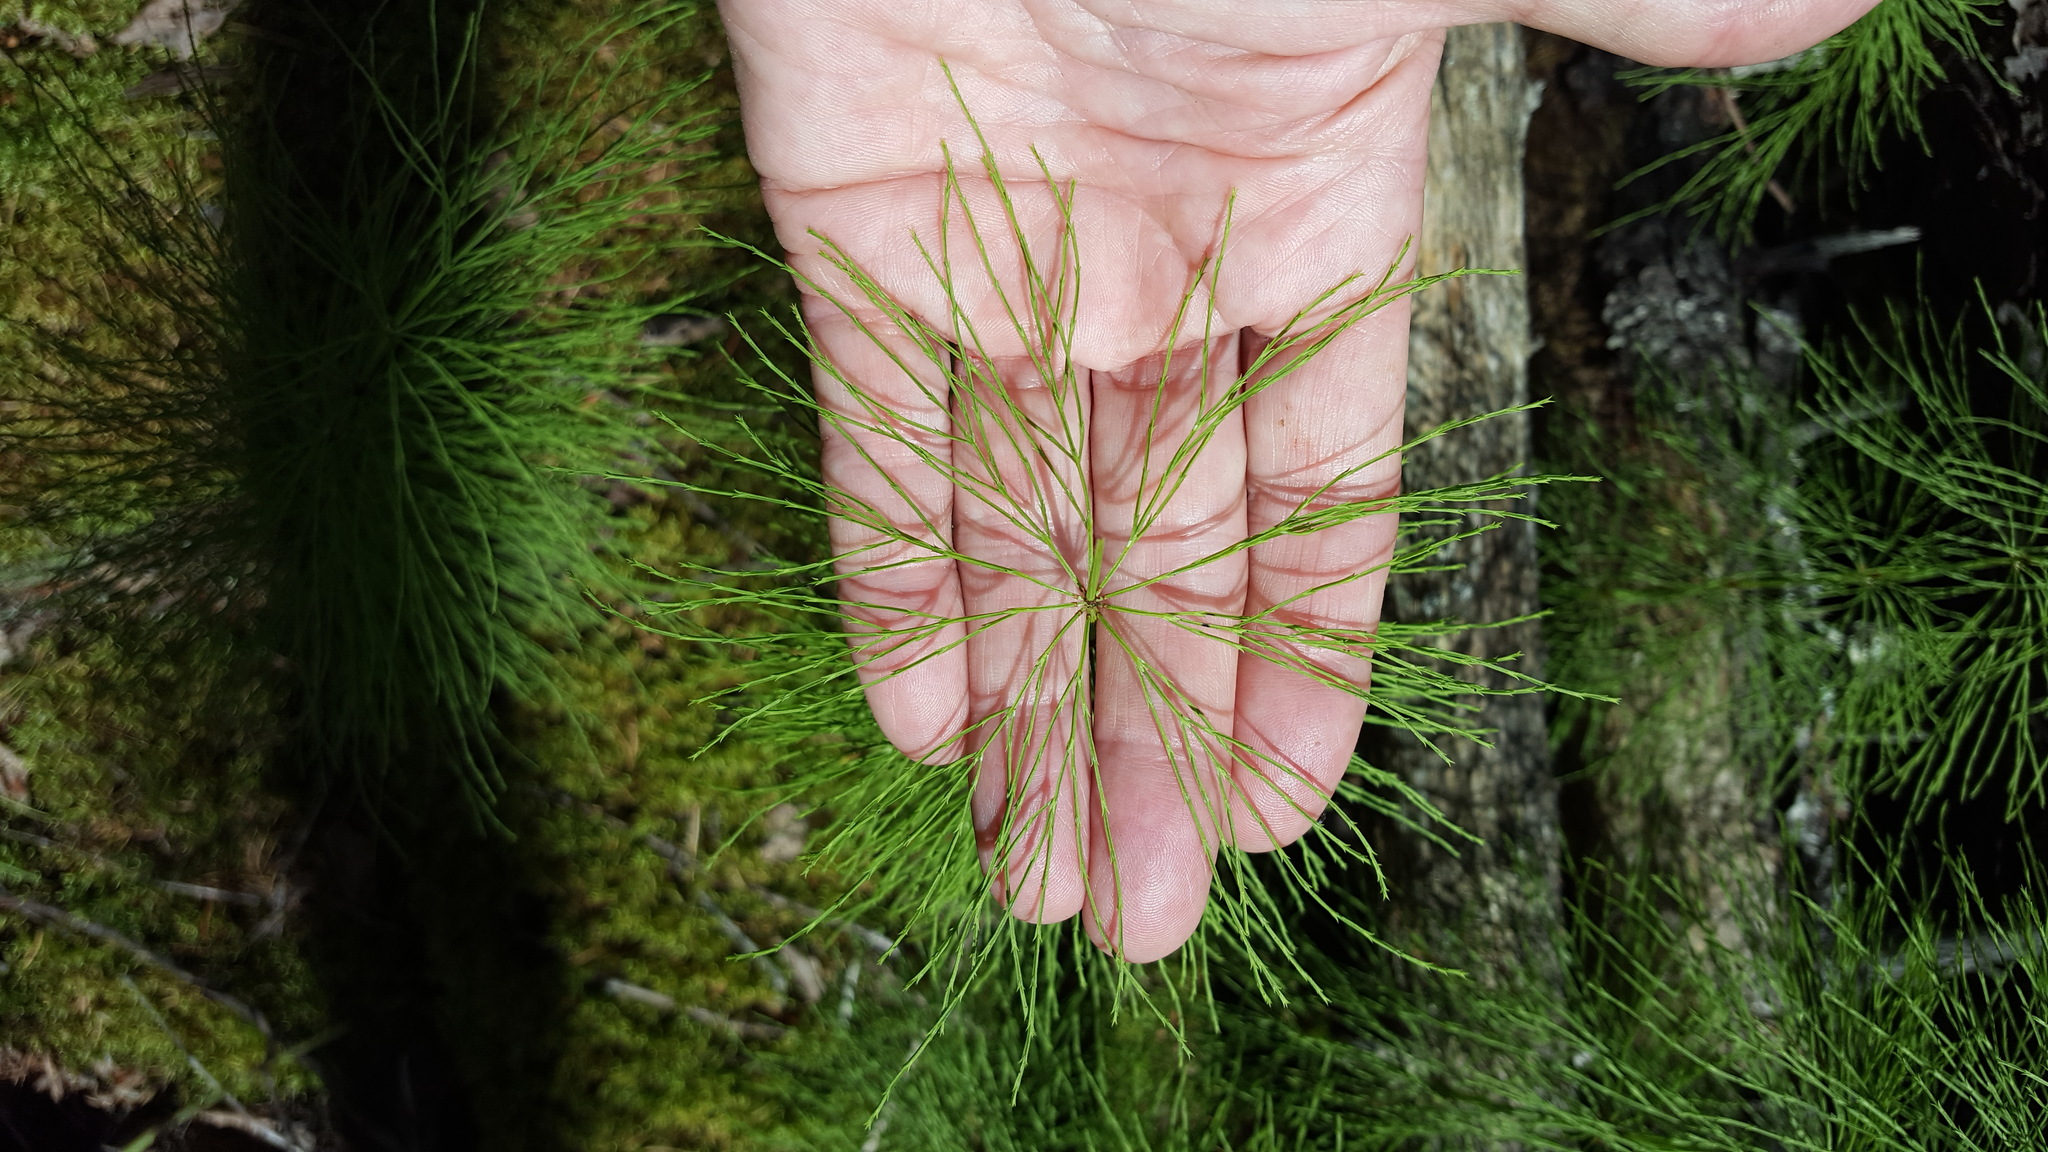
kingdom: Plantae
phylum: Tracheophyta
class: Polypodiopsida
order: Equisetales
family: Equisetaceae
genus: Equisetum
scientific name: Equisetum sylvaticum
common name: Wood horsetail
